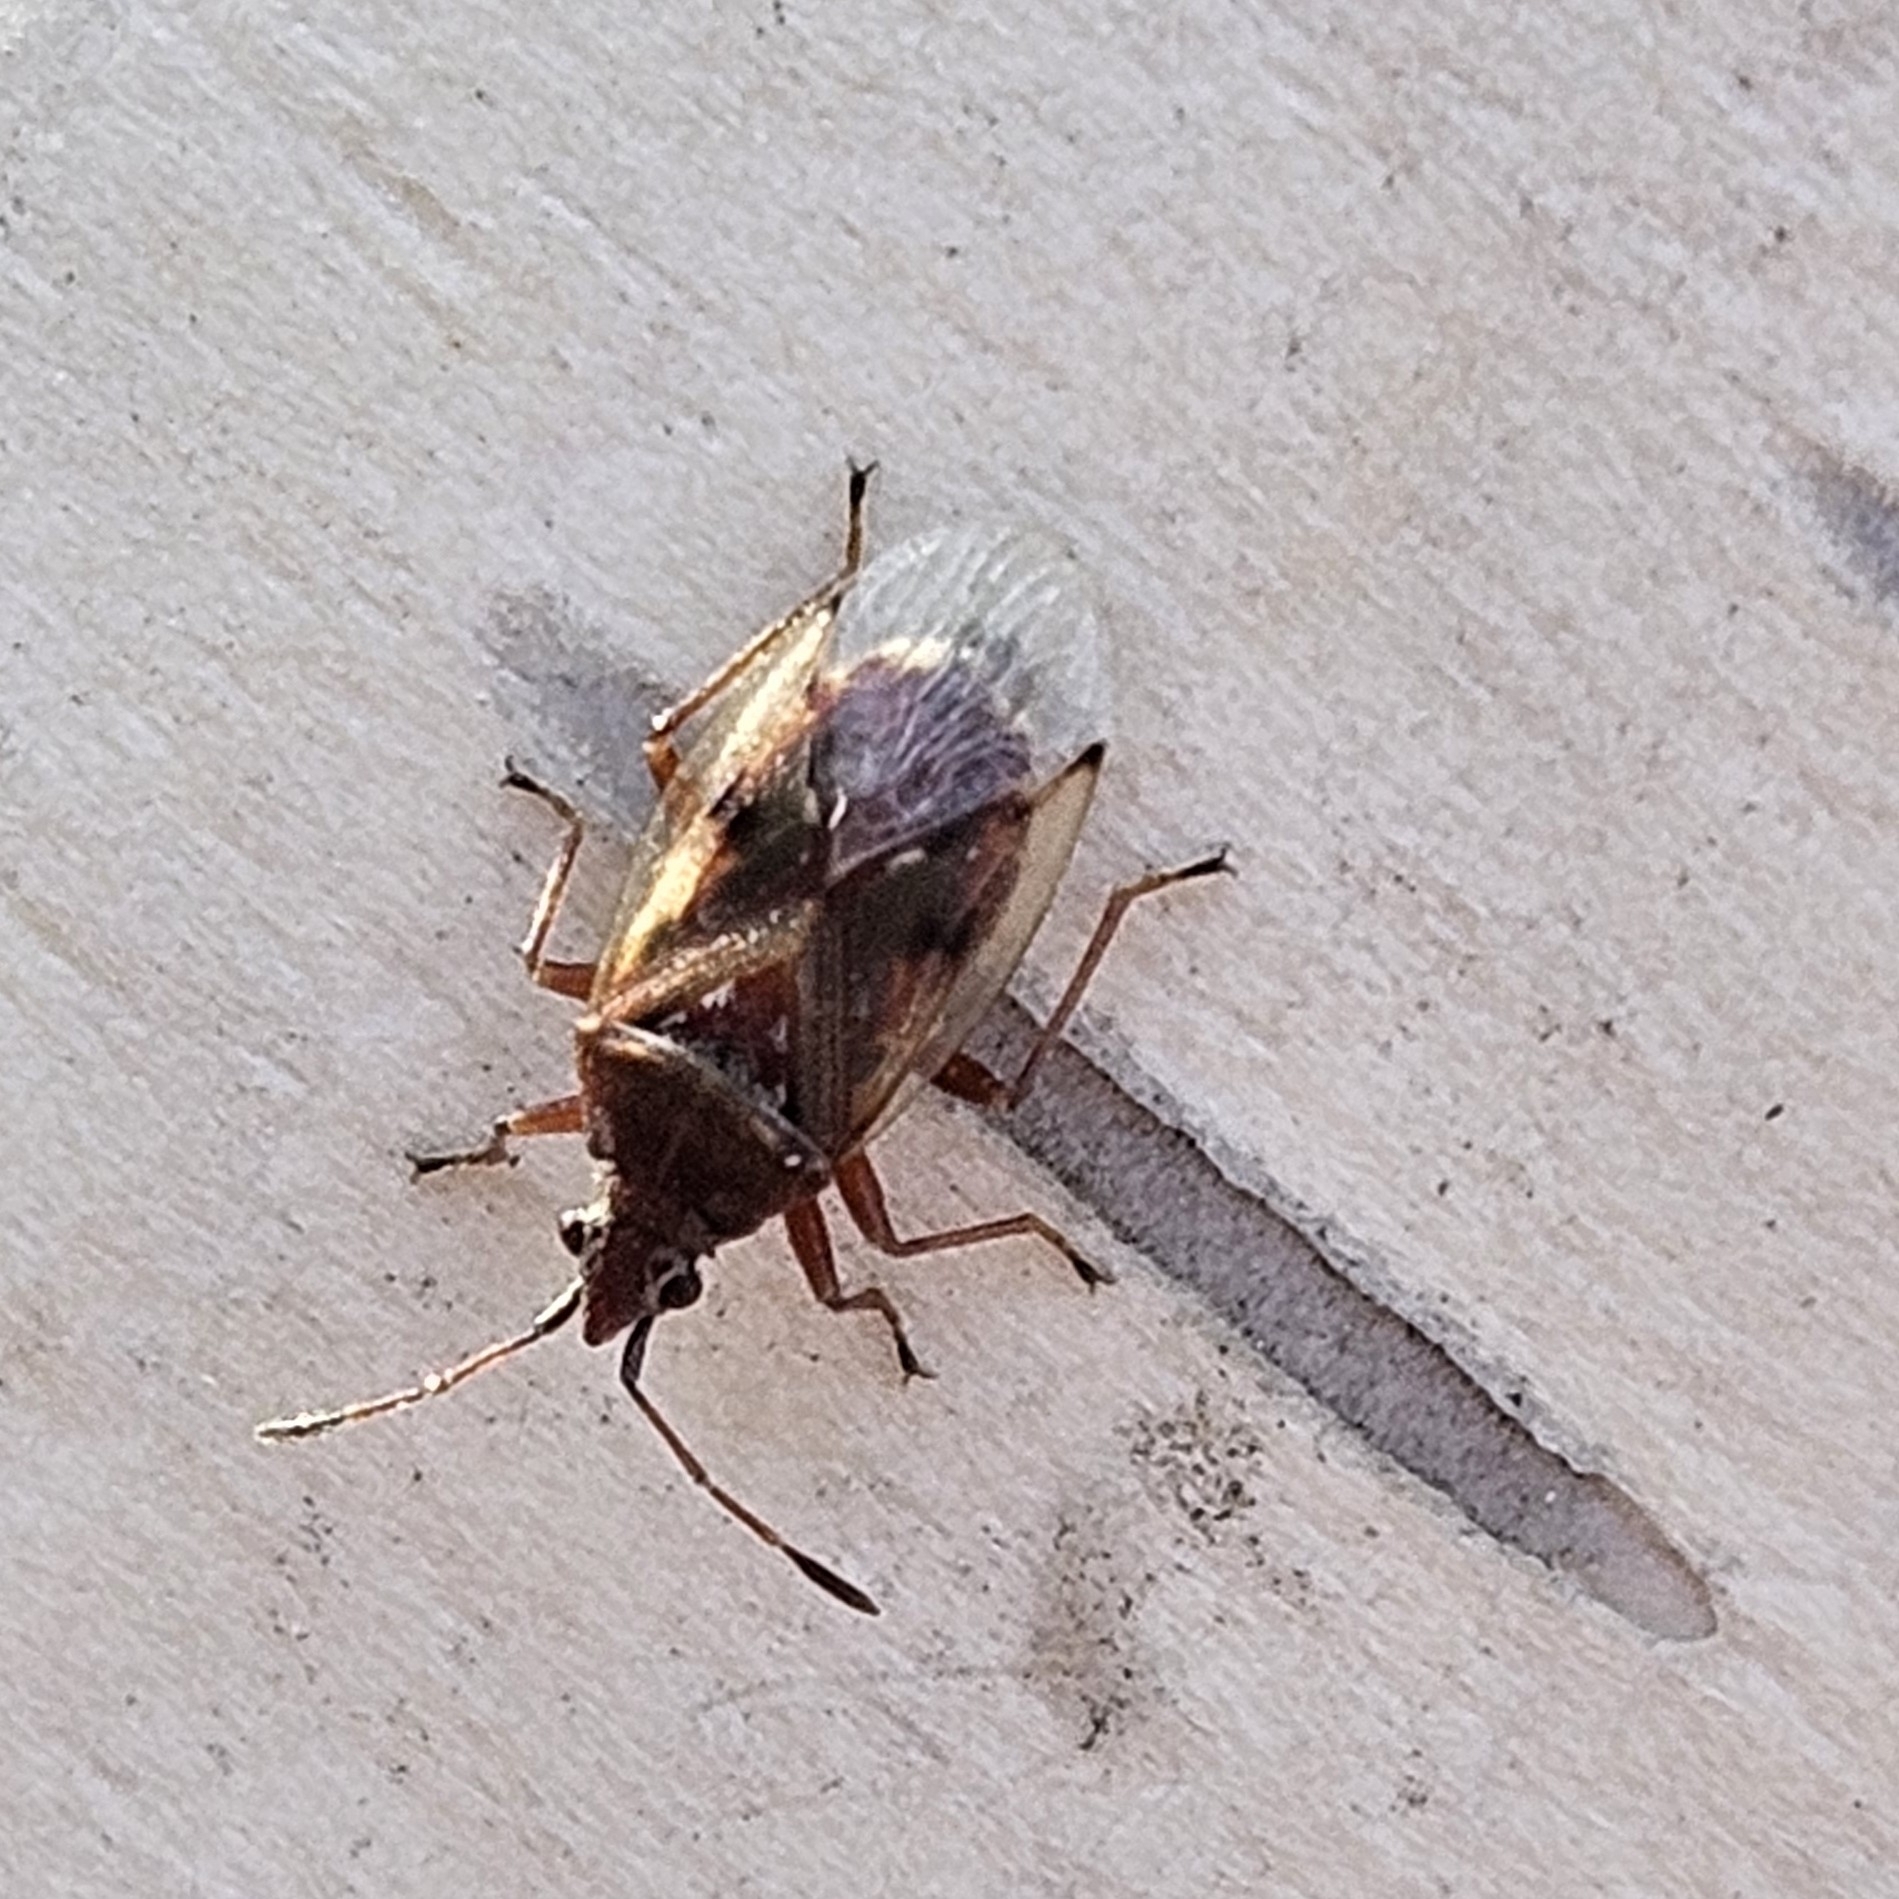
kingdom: Animalia
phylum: Arthropoda
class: Insecta
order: Hemiptera
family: Lygaeidae
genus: Kleidocerys
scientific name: Kleidocerys resedae
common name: Birch catkin bug
